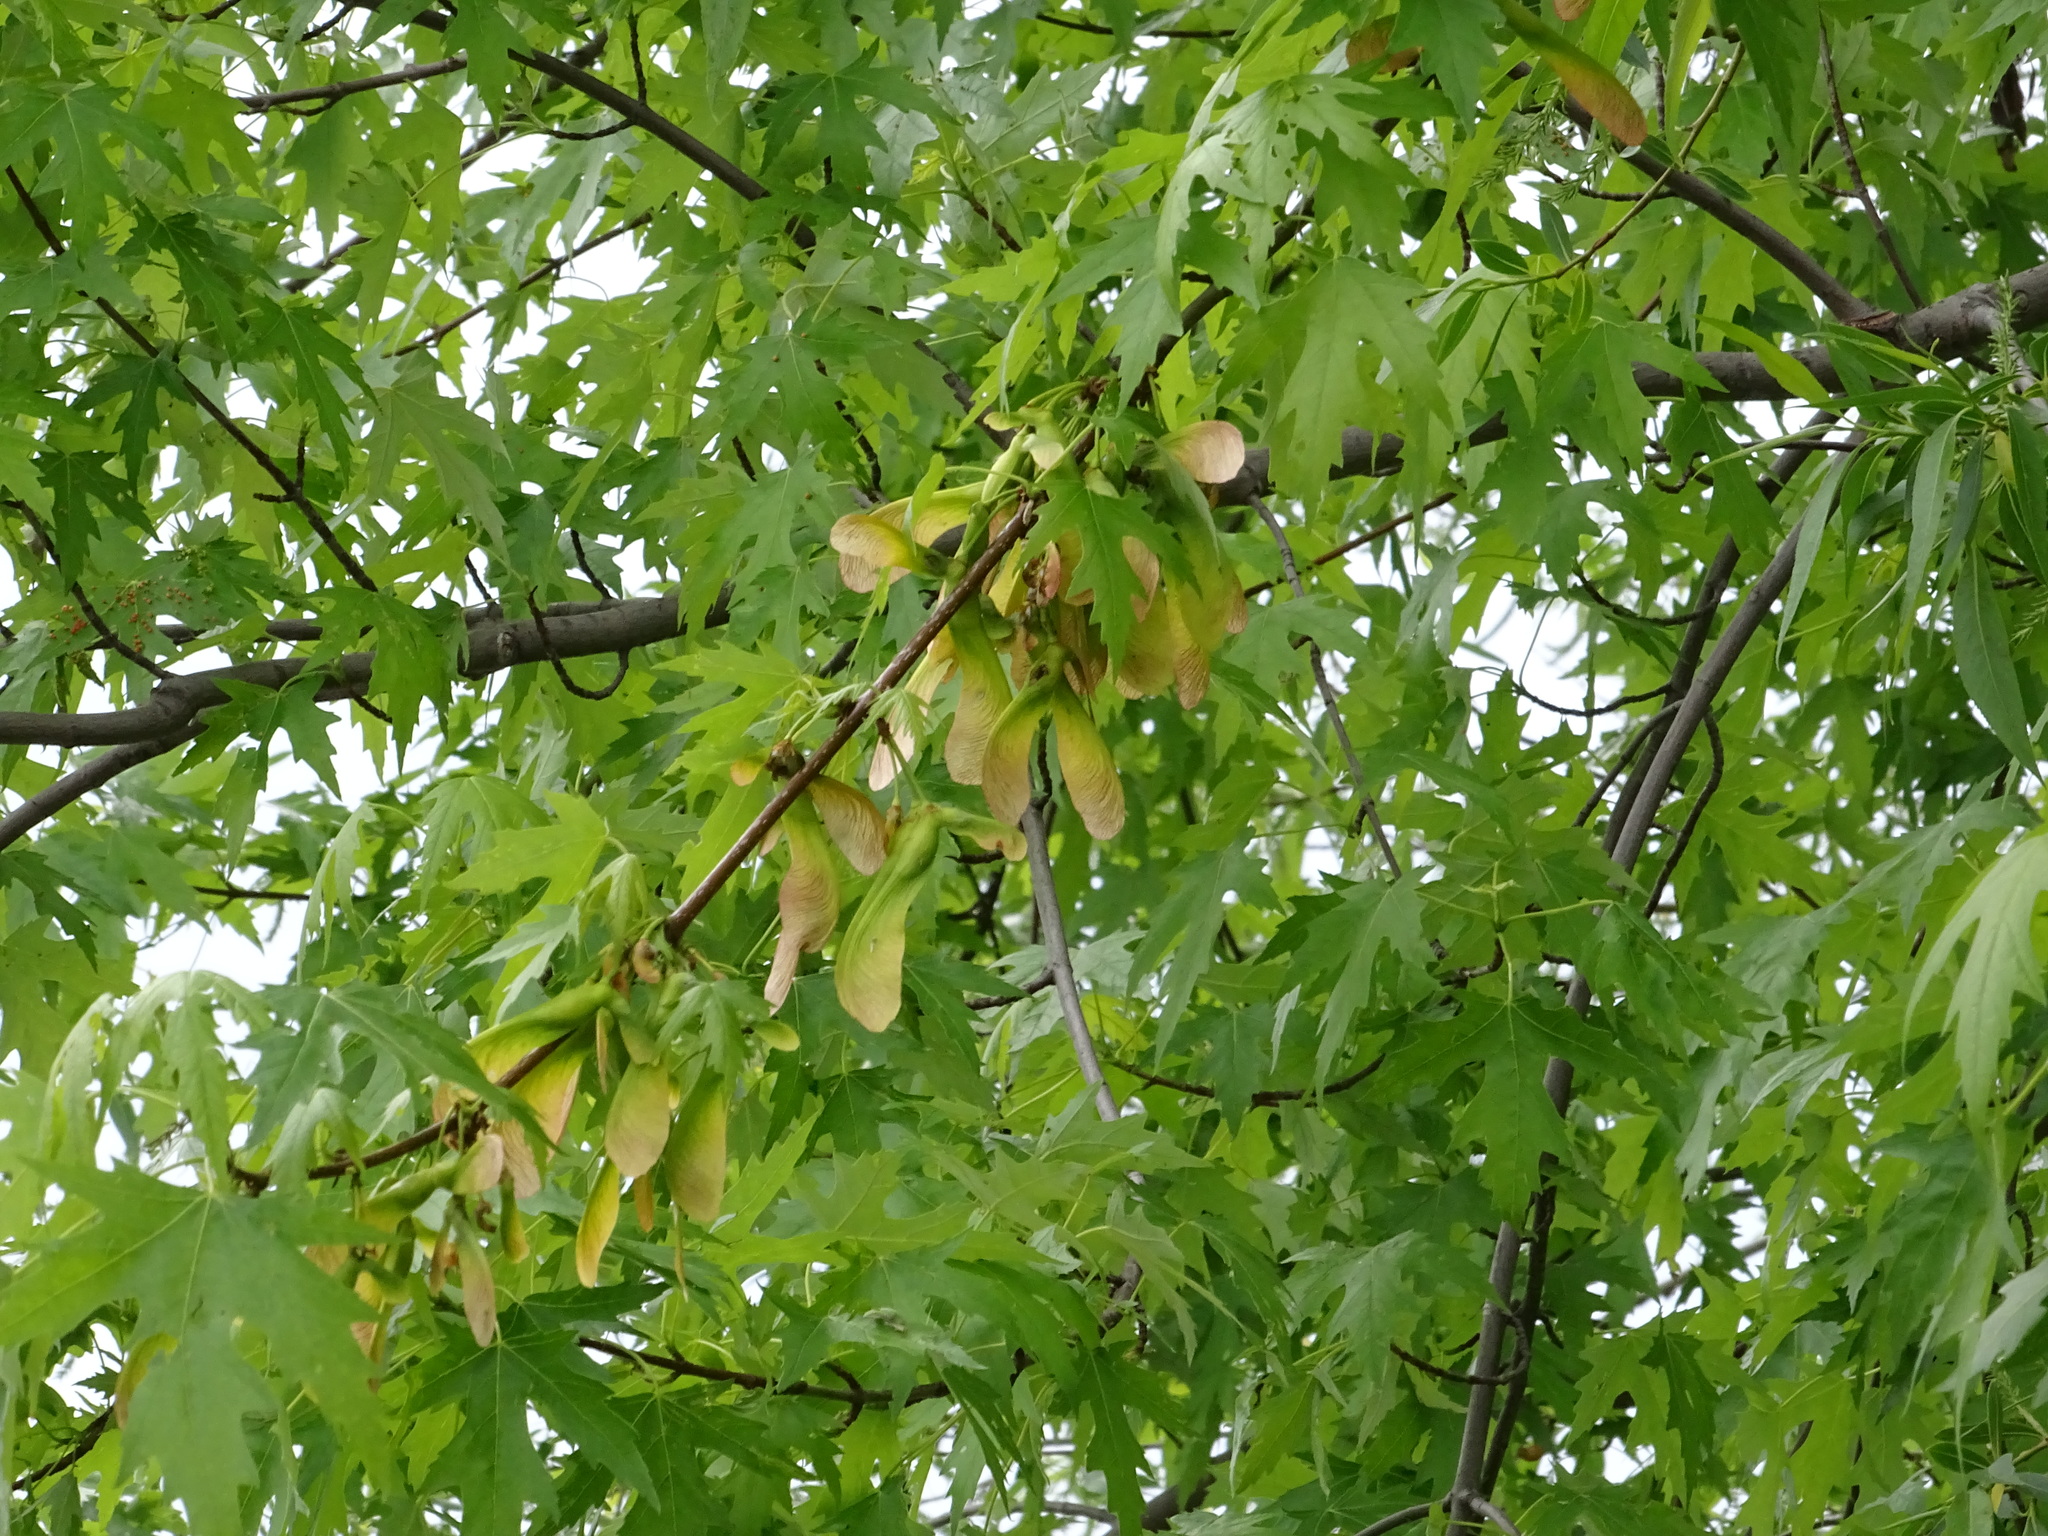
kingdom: Plantae
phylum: Tracheophyta
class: Magnoliopsida
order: Sapindales
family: Sapindaceae
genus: Acer
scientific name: Acer saccharinum
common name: Silver maple
